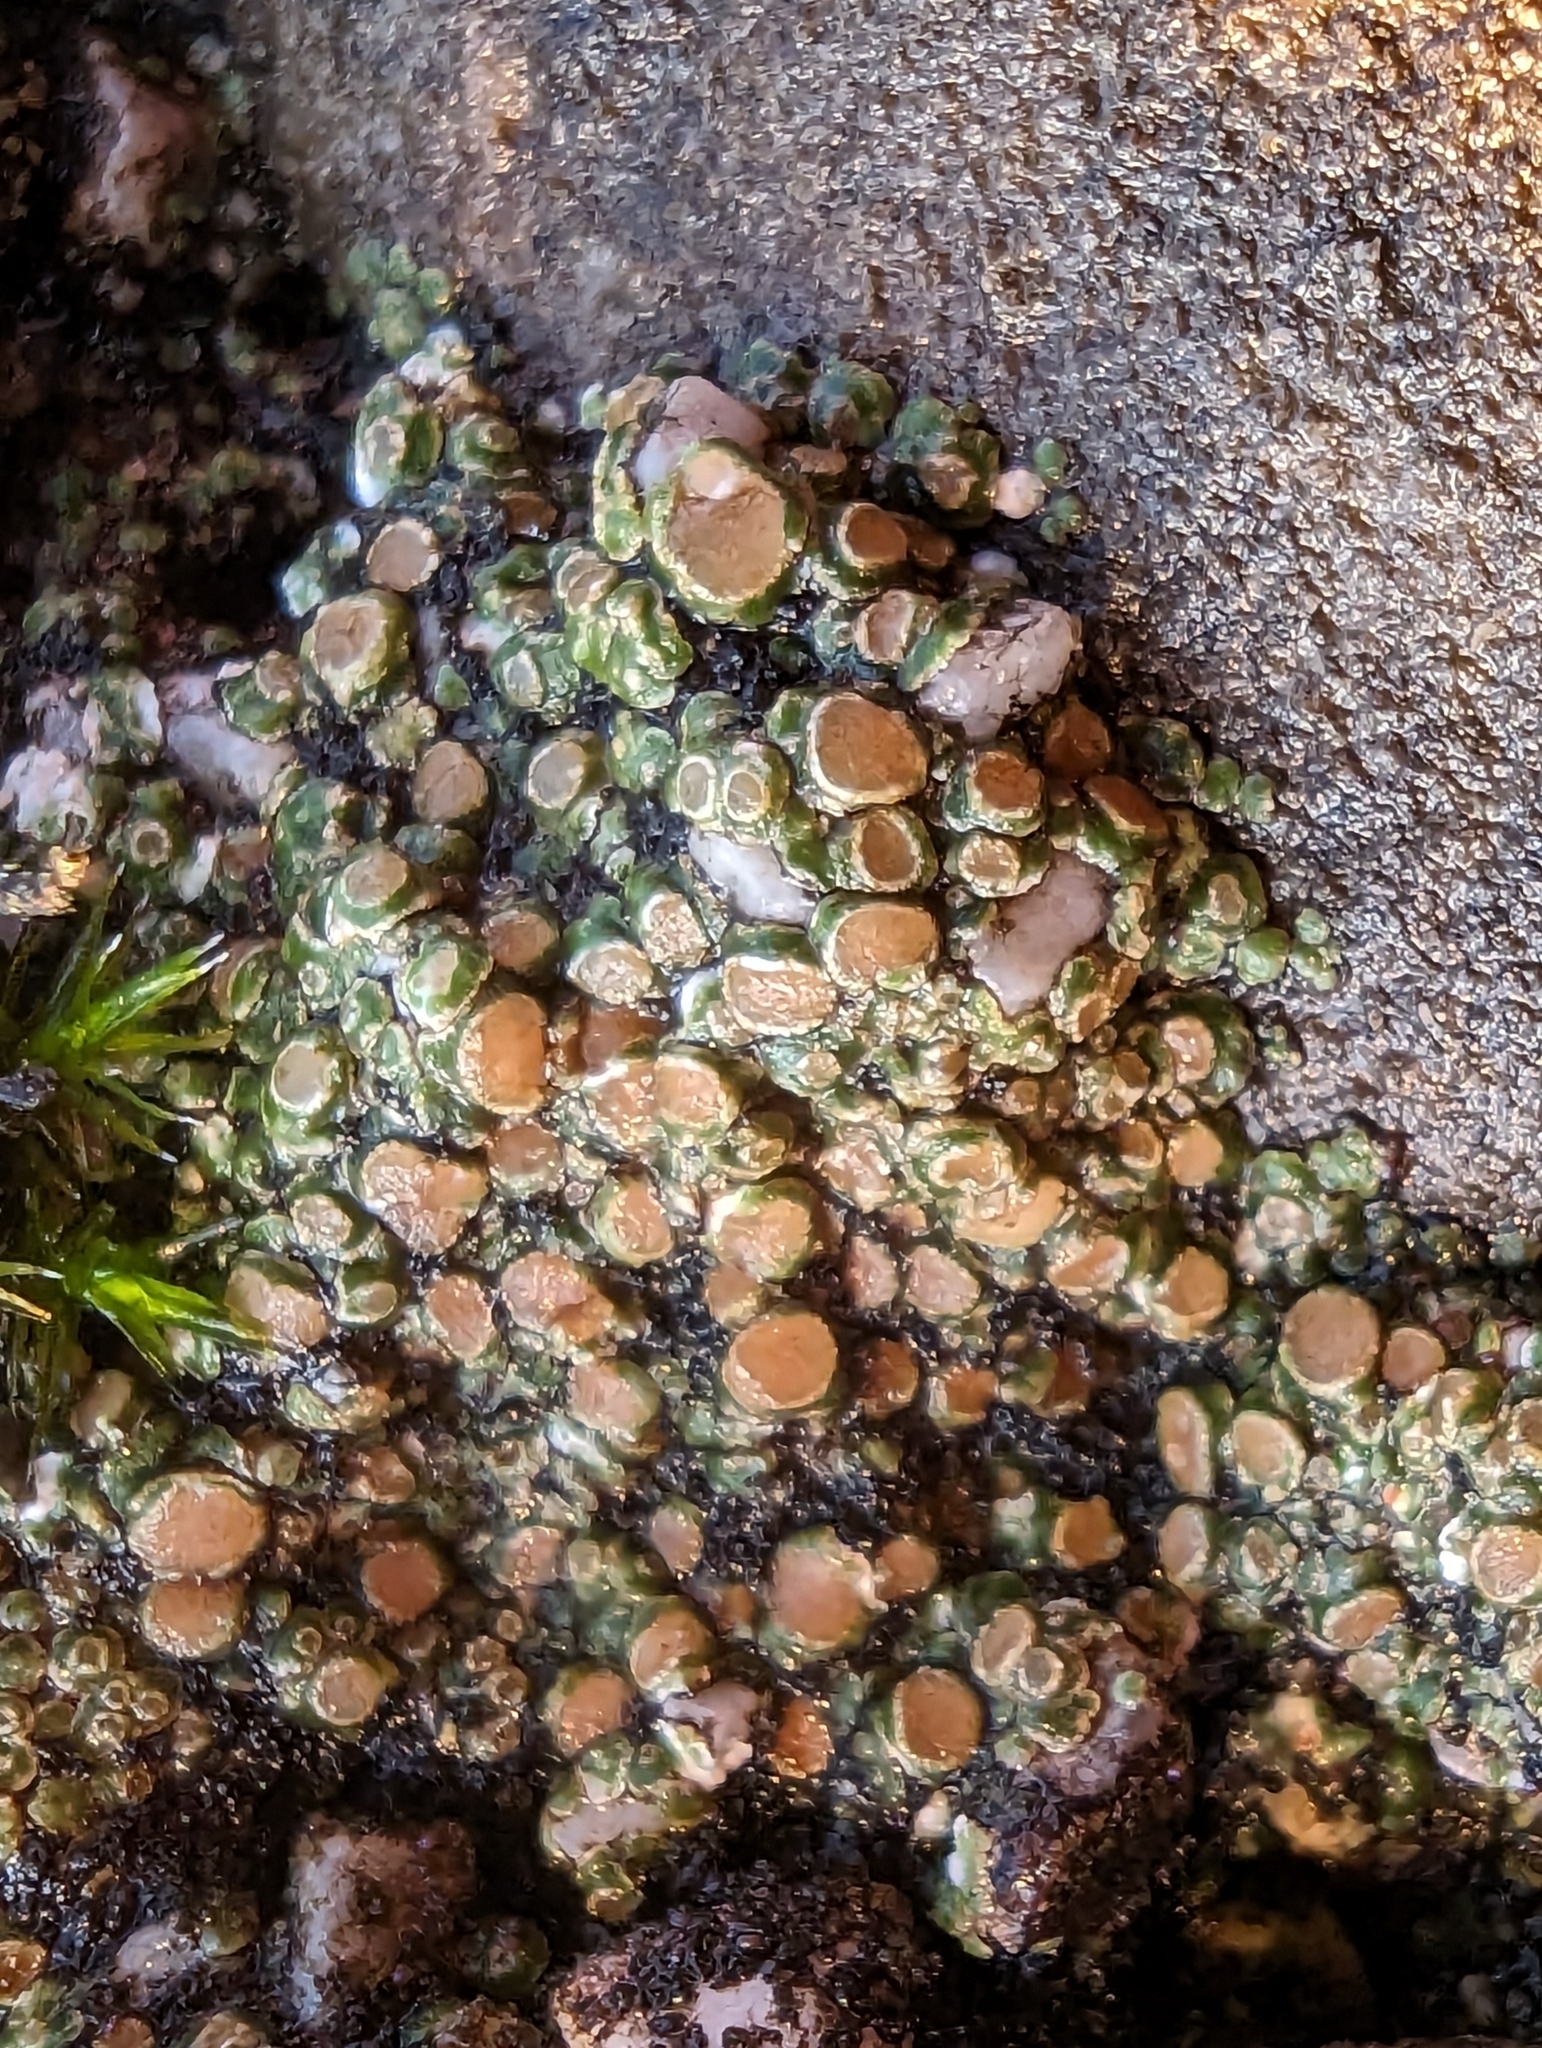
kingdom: Fungi
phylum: Ascomycota
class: Lecanoromycetes
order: Pertusariales
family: Megasporaceae
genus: Circinaria
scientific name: Circinaria contorta
